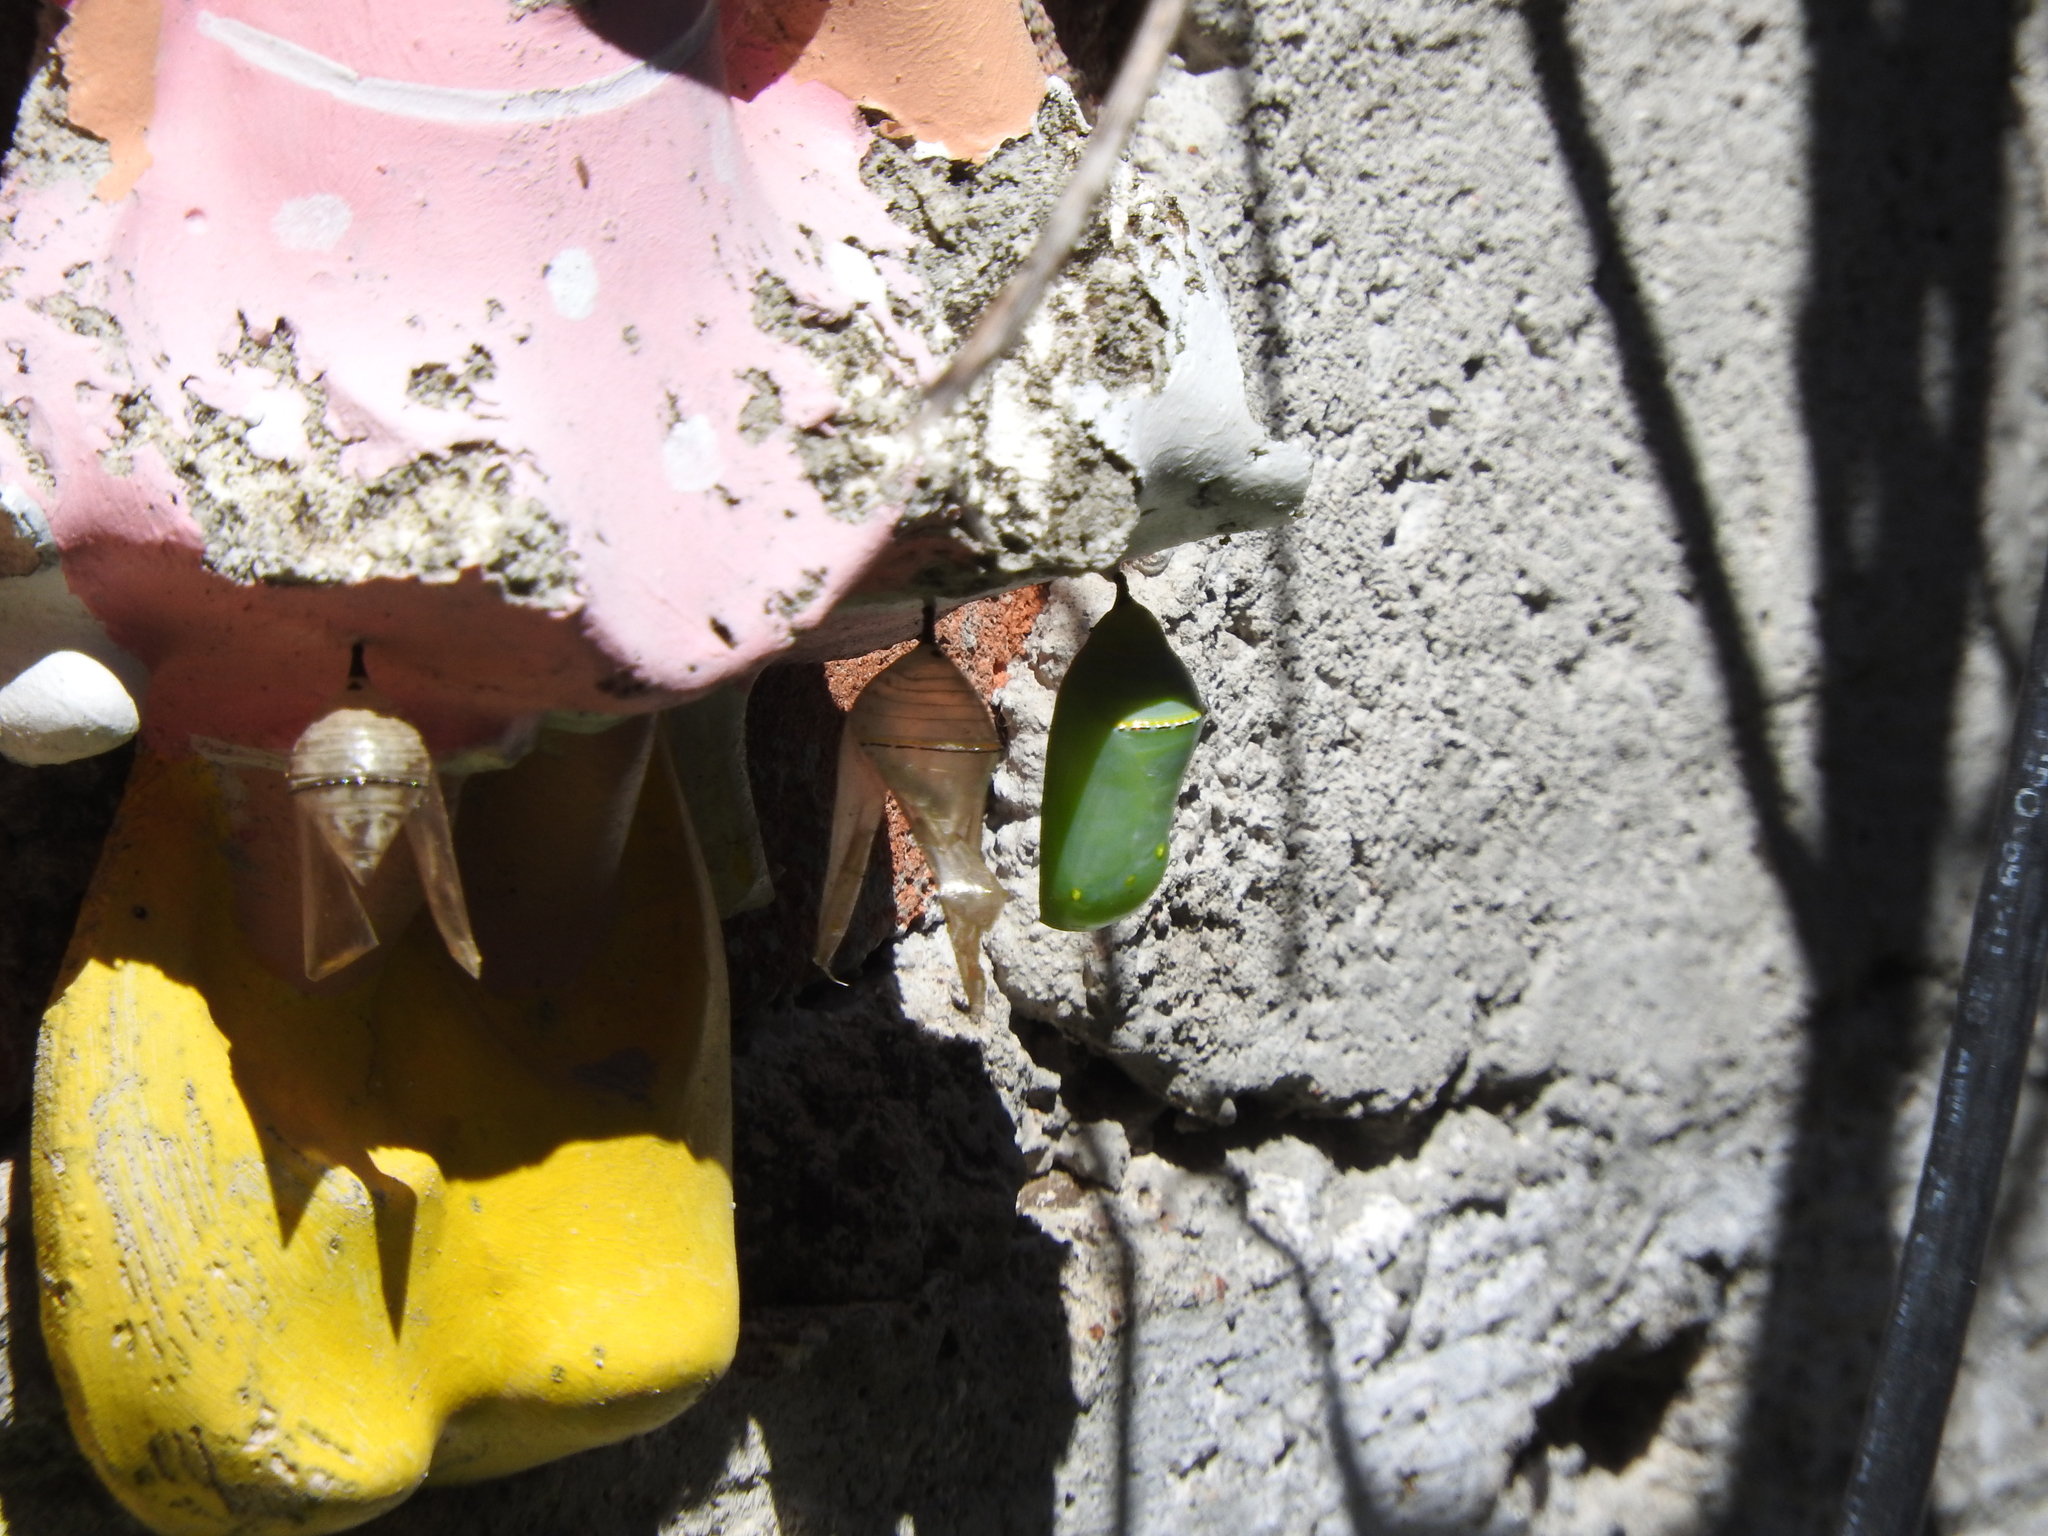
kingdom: Animalia
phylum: Arthropoda
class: Insecta
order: Lepidoptera
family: Nymphalidae
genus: Danaus
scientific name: Danaus plexippus
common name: Monarch
